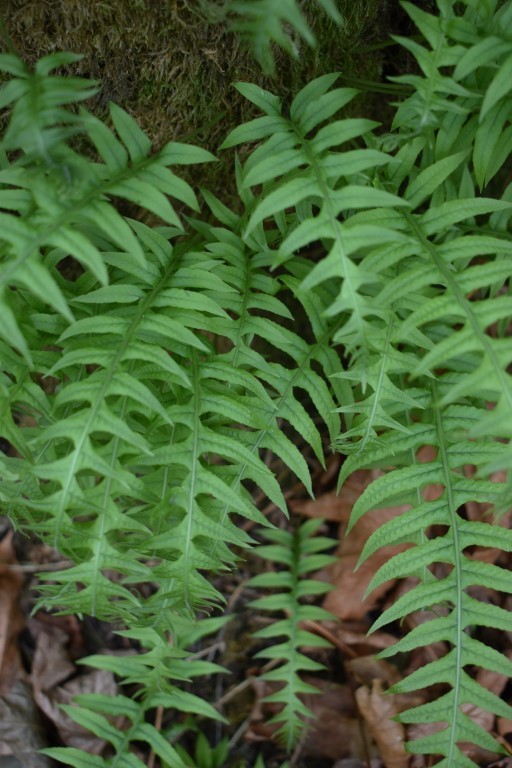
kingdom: Plantae
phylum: Tracheophyta
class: Polypodiopsida
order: Polypodiales
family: Polypodiaceae
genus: Polypodium
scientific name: Polypodium glycyrrhiza
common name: Licorice fern
